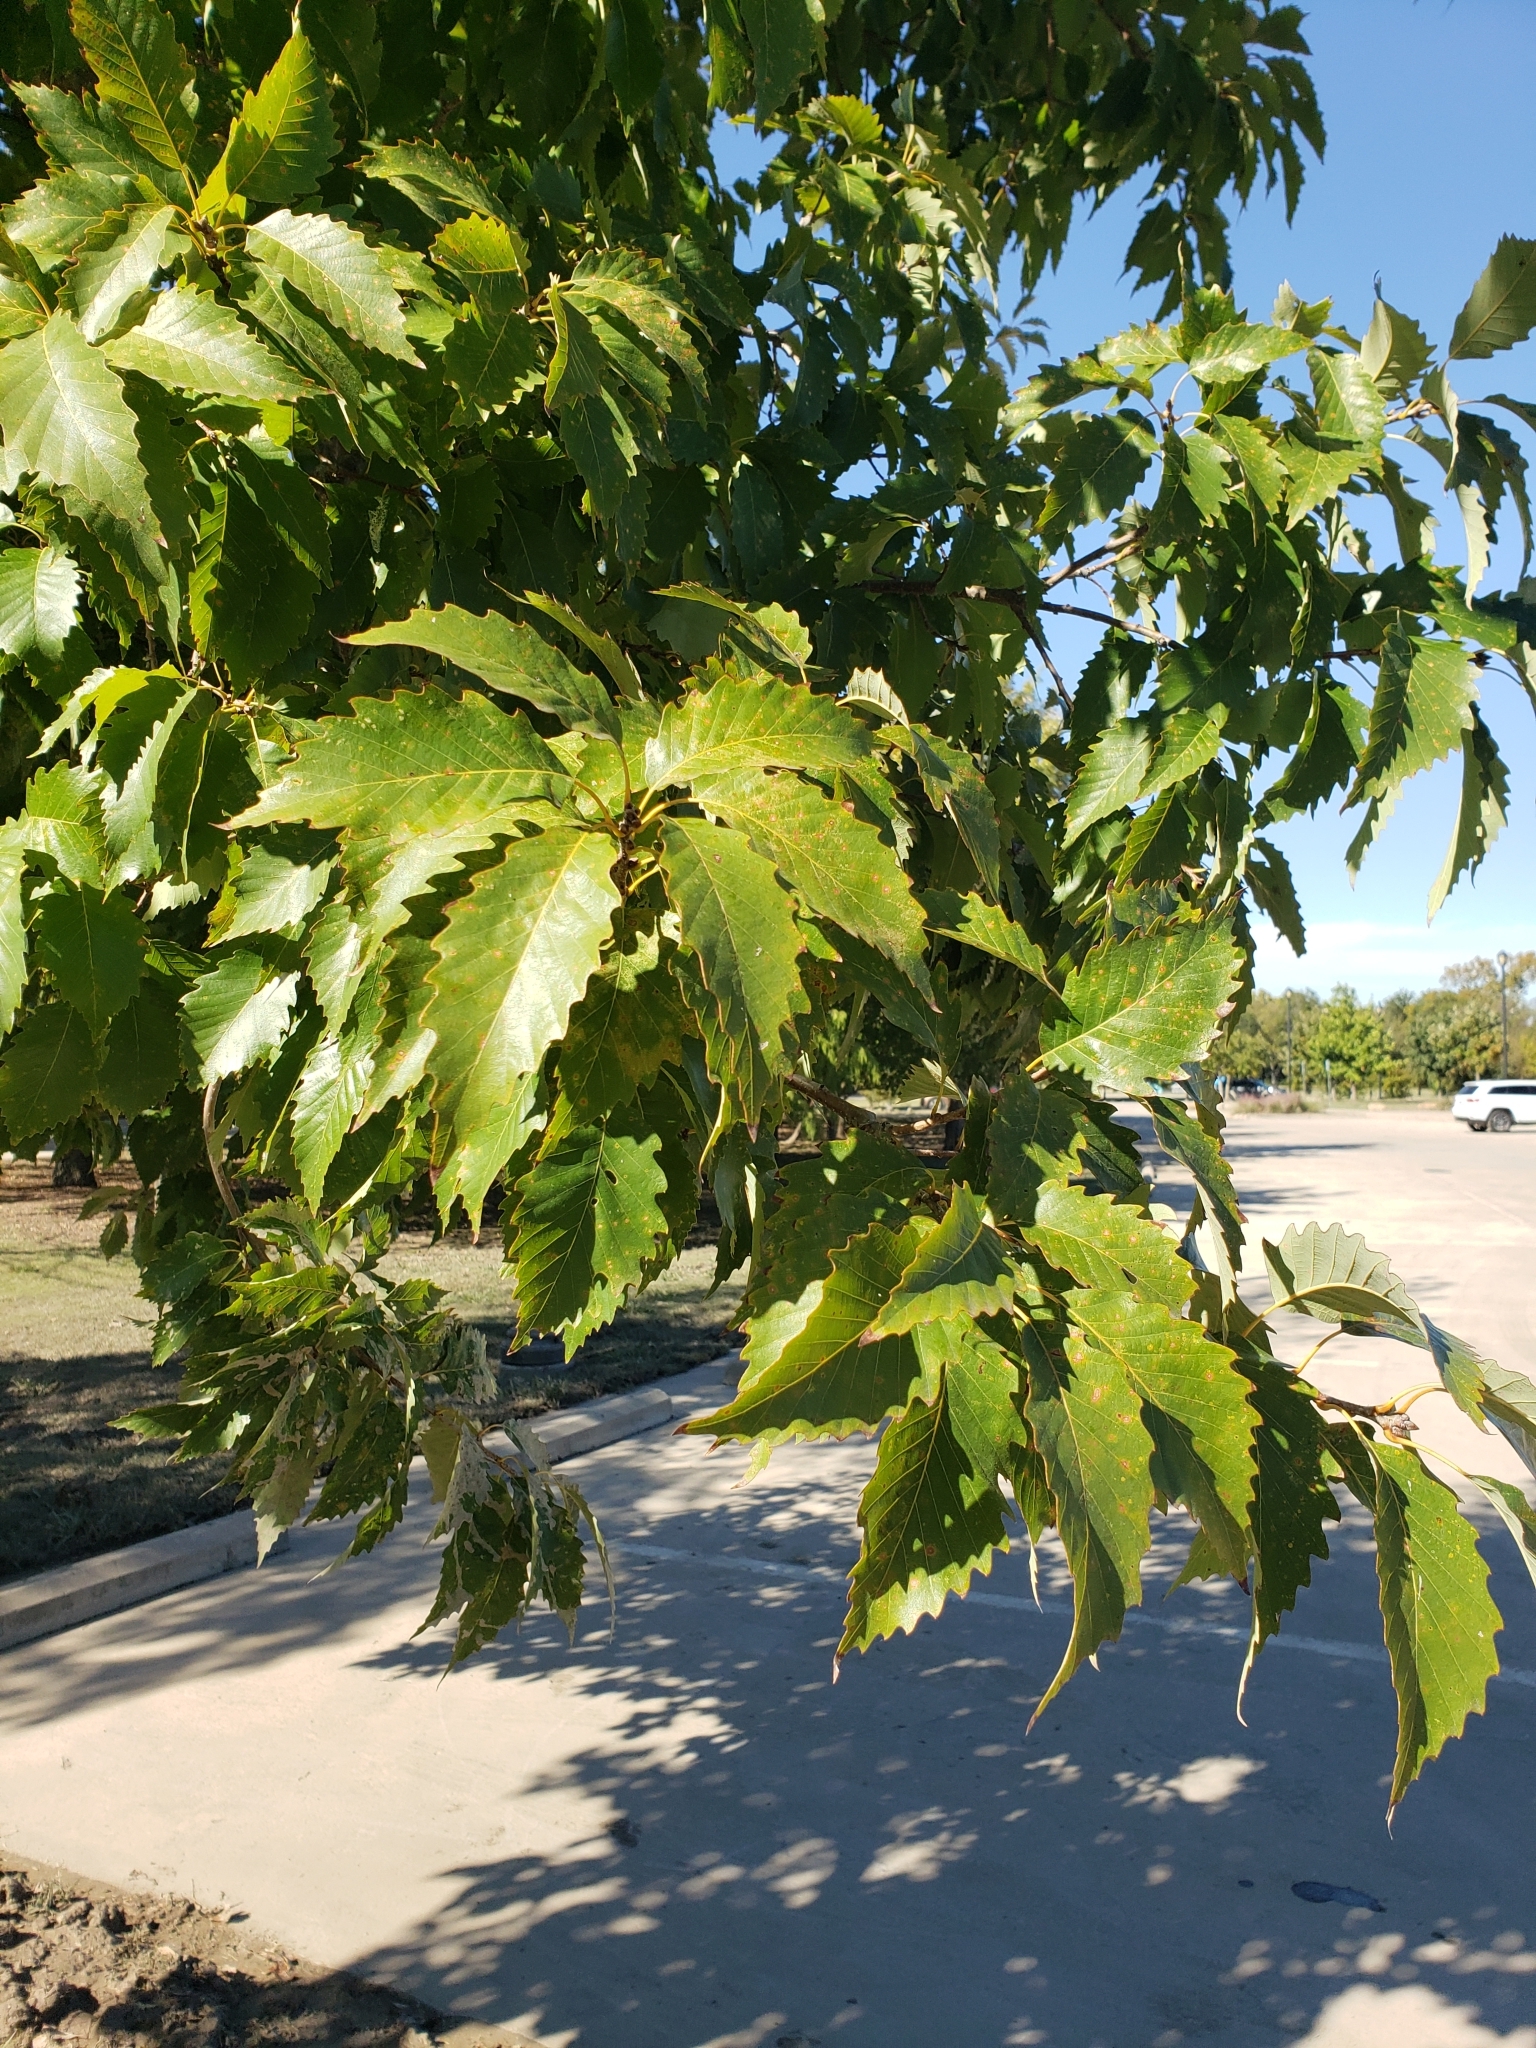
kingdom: Plantae
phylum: Tracheophyta
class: Magnoliopsida
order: Fagales
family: Fagaceae
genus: Quercus
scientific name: Quercus muehlenbergii
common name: Chinkapin oak
